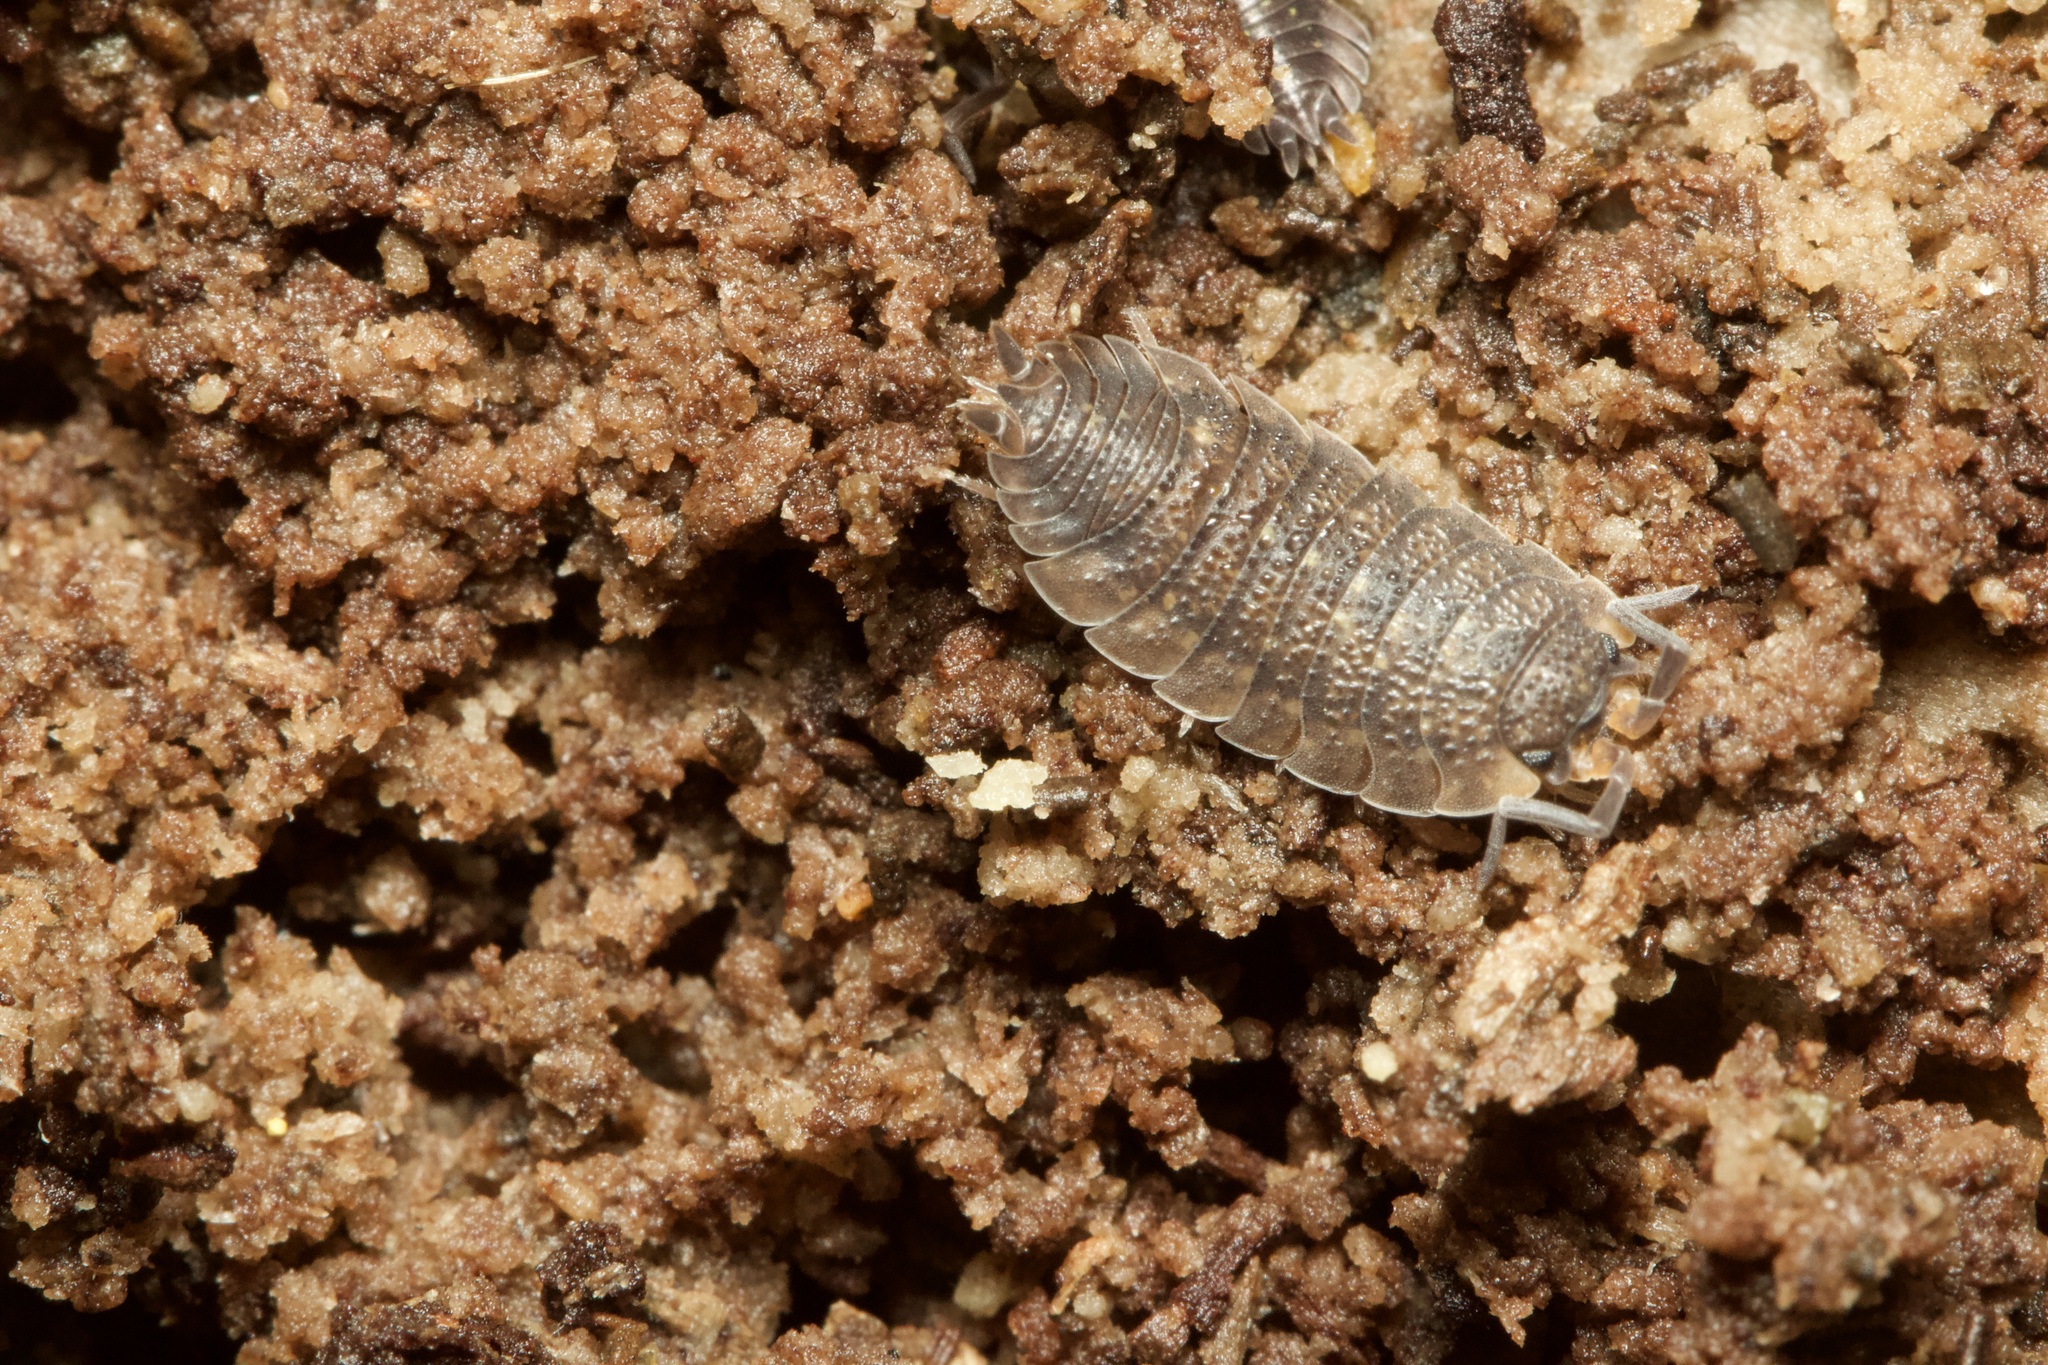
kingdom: Animalia
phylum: Arthropoda
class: Malacostraca
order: Isopoda
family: Porcellionidae
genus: Porcellio
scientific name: Porcellio scaber
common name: Common rough woodlouse
